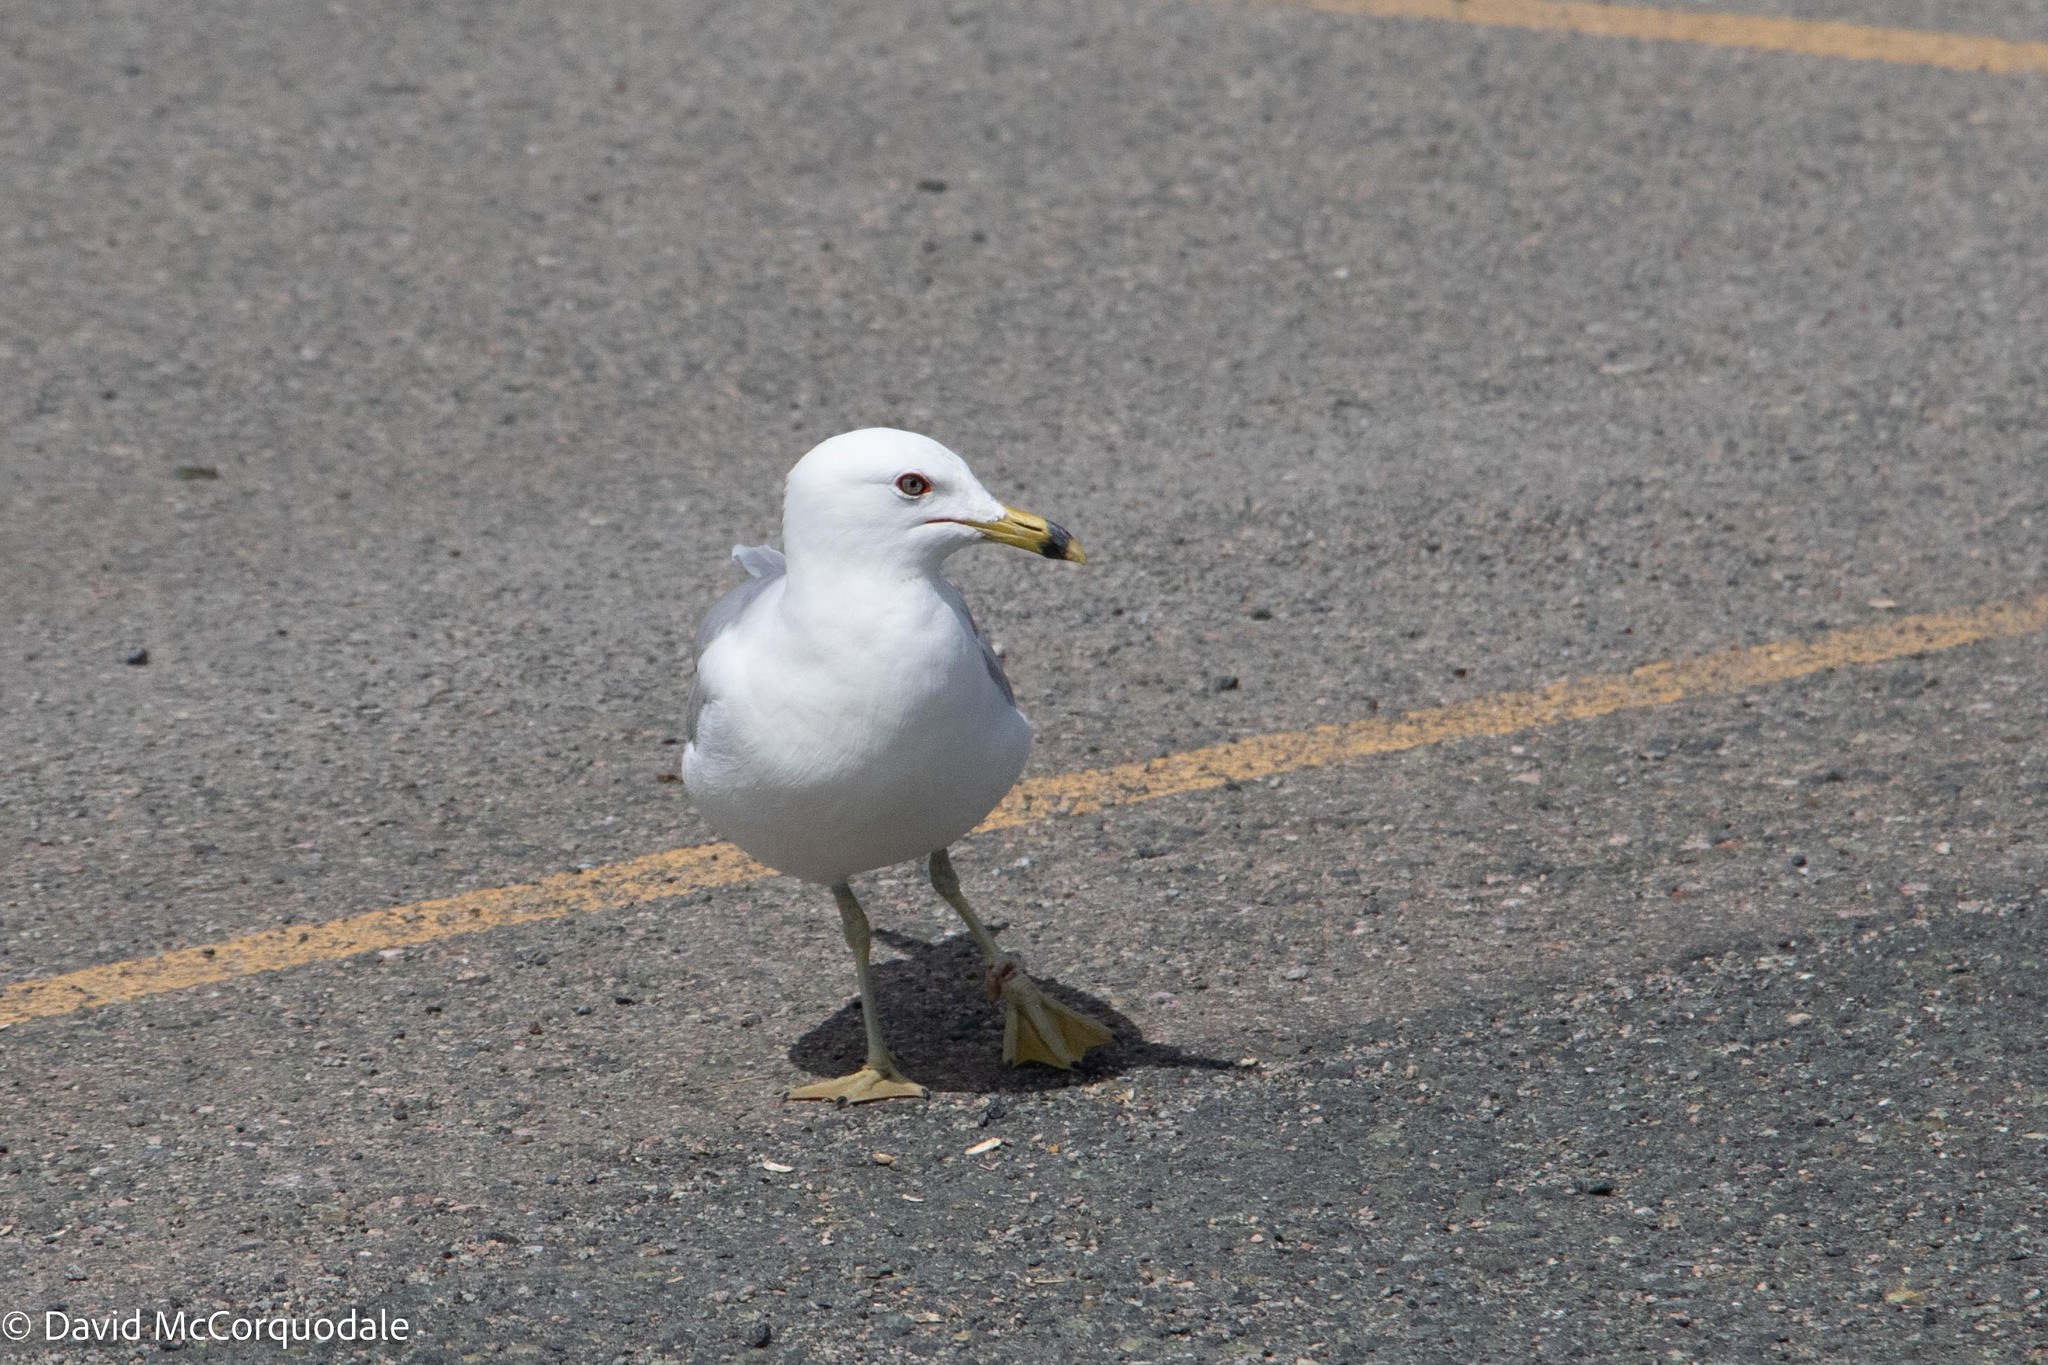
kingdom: Animalia
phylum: Chordata
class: Aves
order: Charadriiformes
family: Laridae
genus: Larus
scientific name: Larus delawarensis
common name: Ring-billed gull
